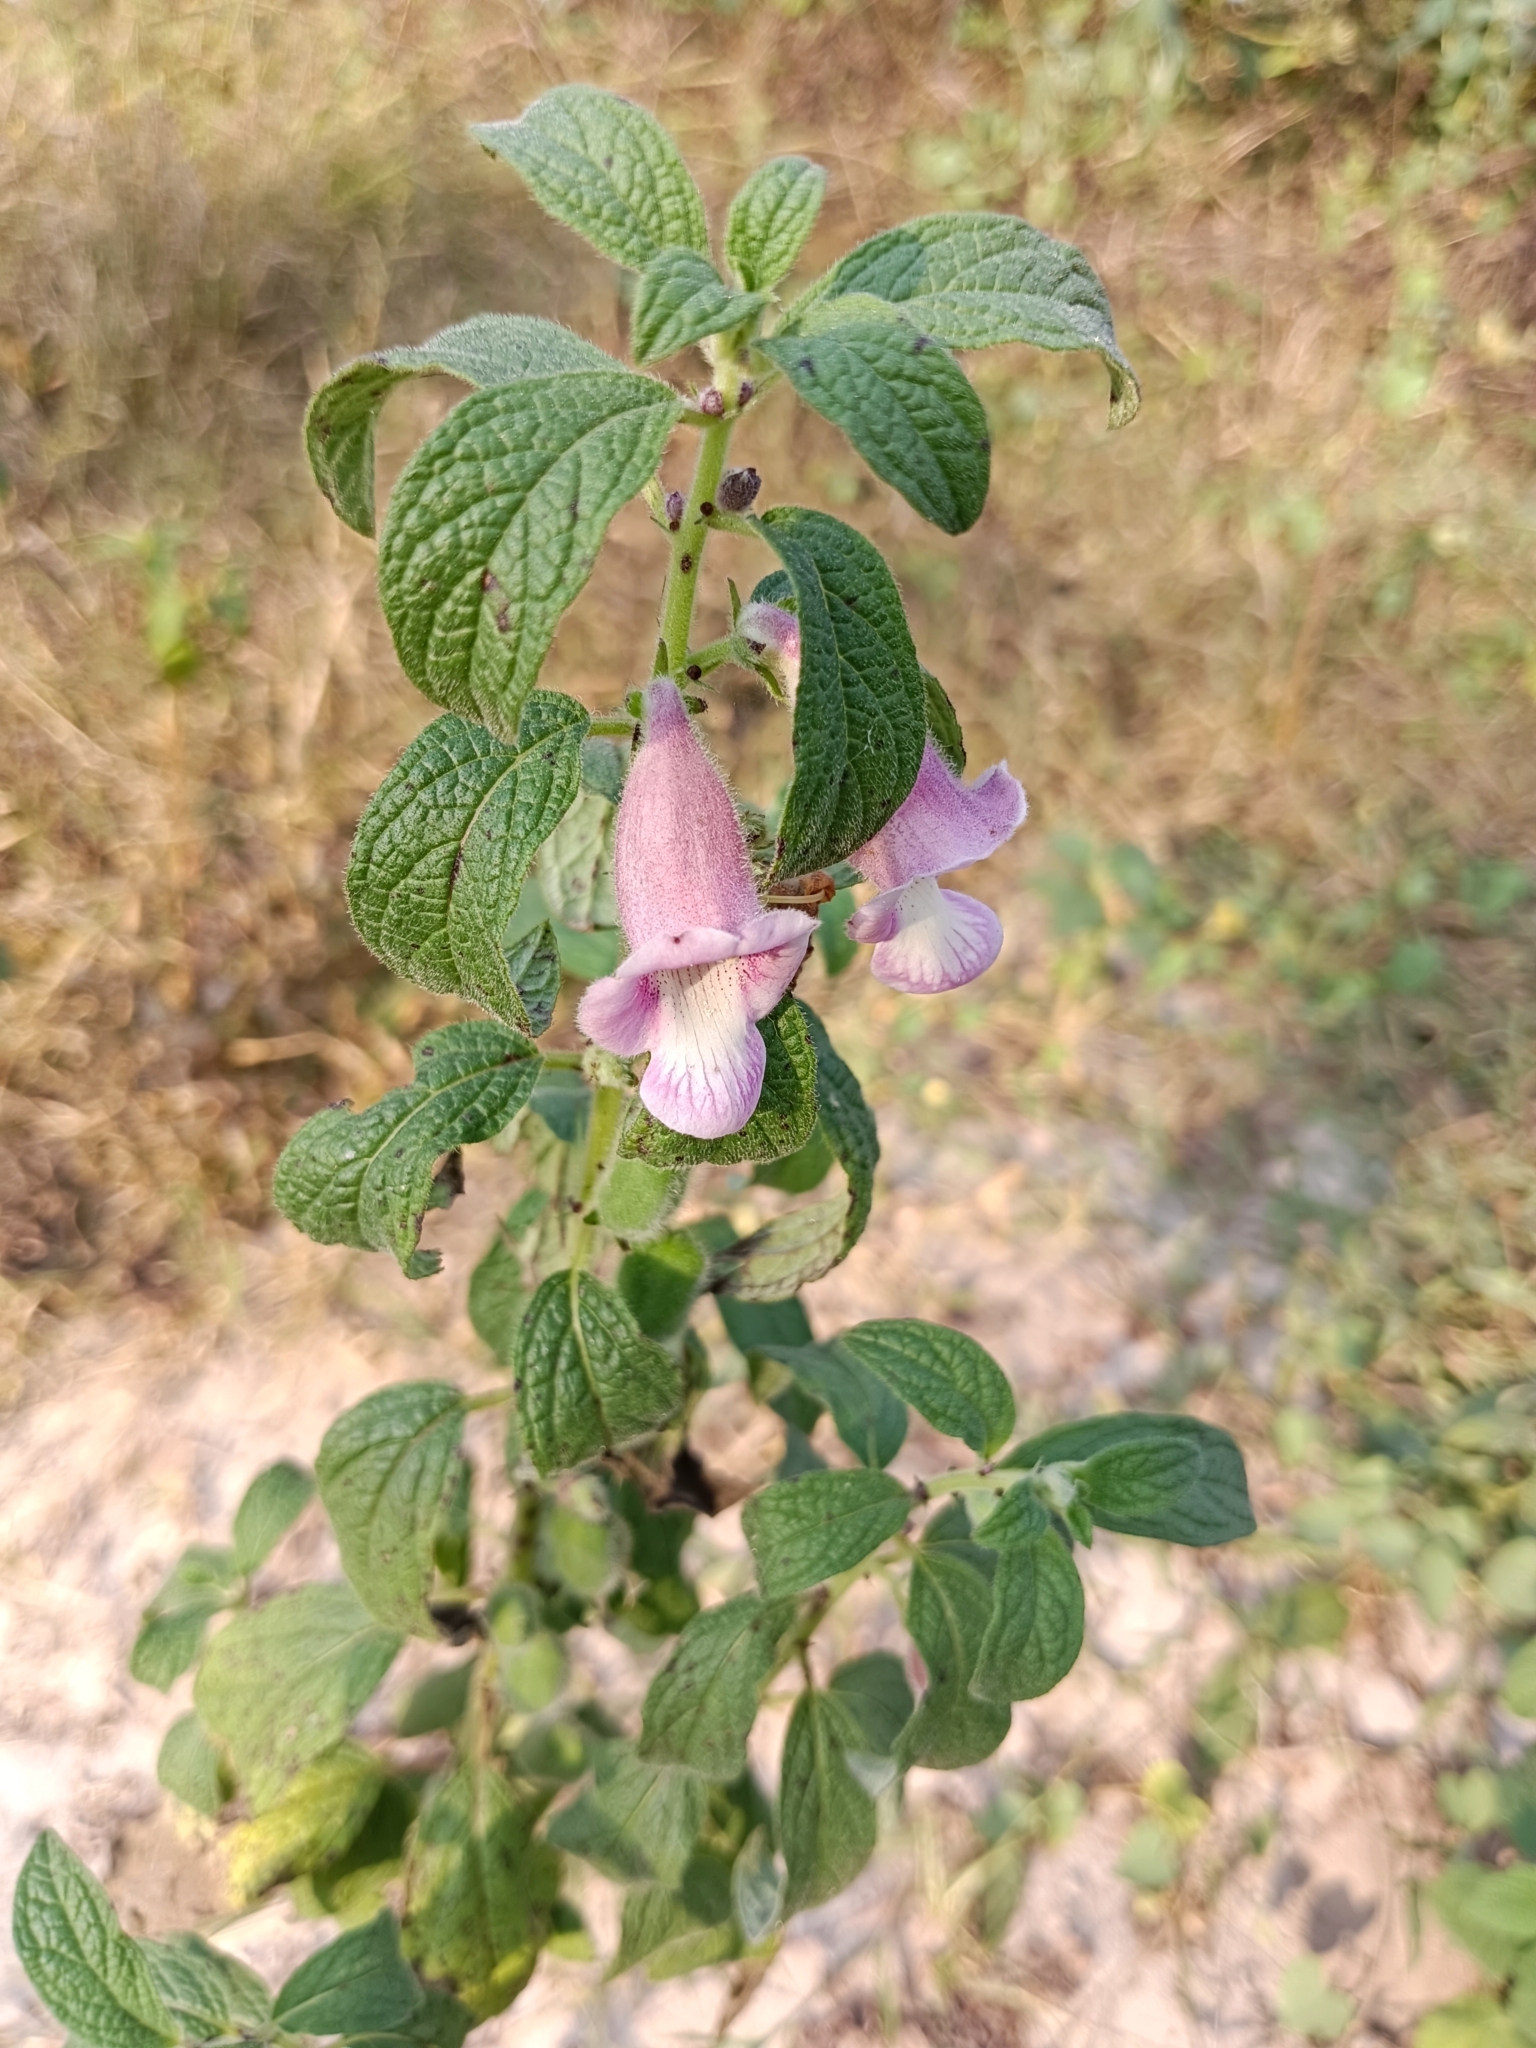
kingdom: Plantae
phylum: Tracheophyta
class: Magnoliopsida
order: Lamiales
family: Pedaliaceae
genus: Sesamum
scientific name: Sesamum indicum
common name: Sesame
